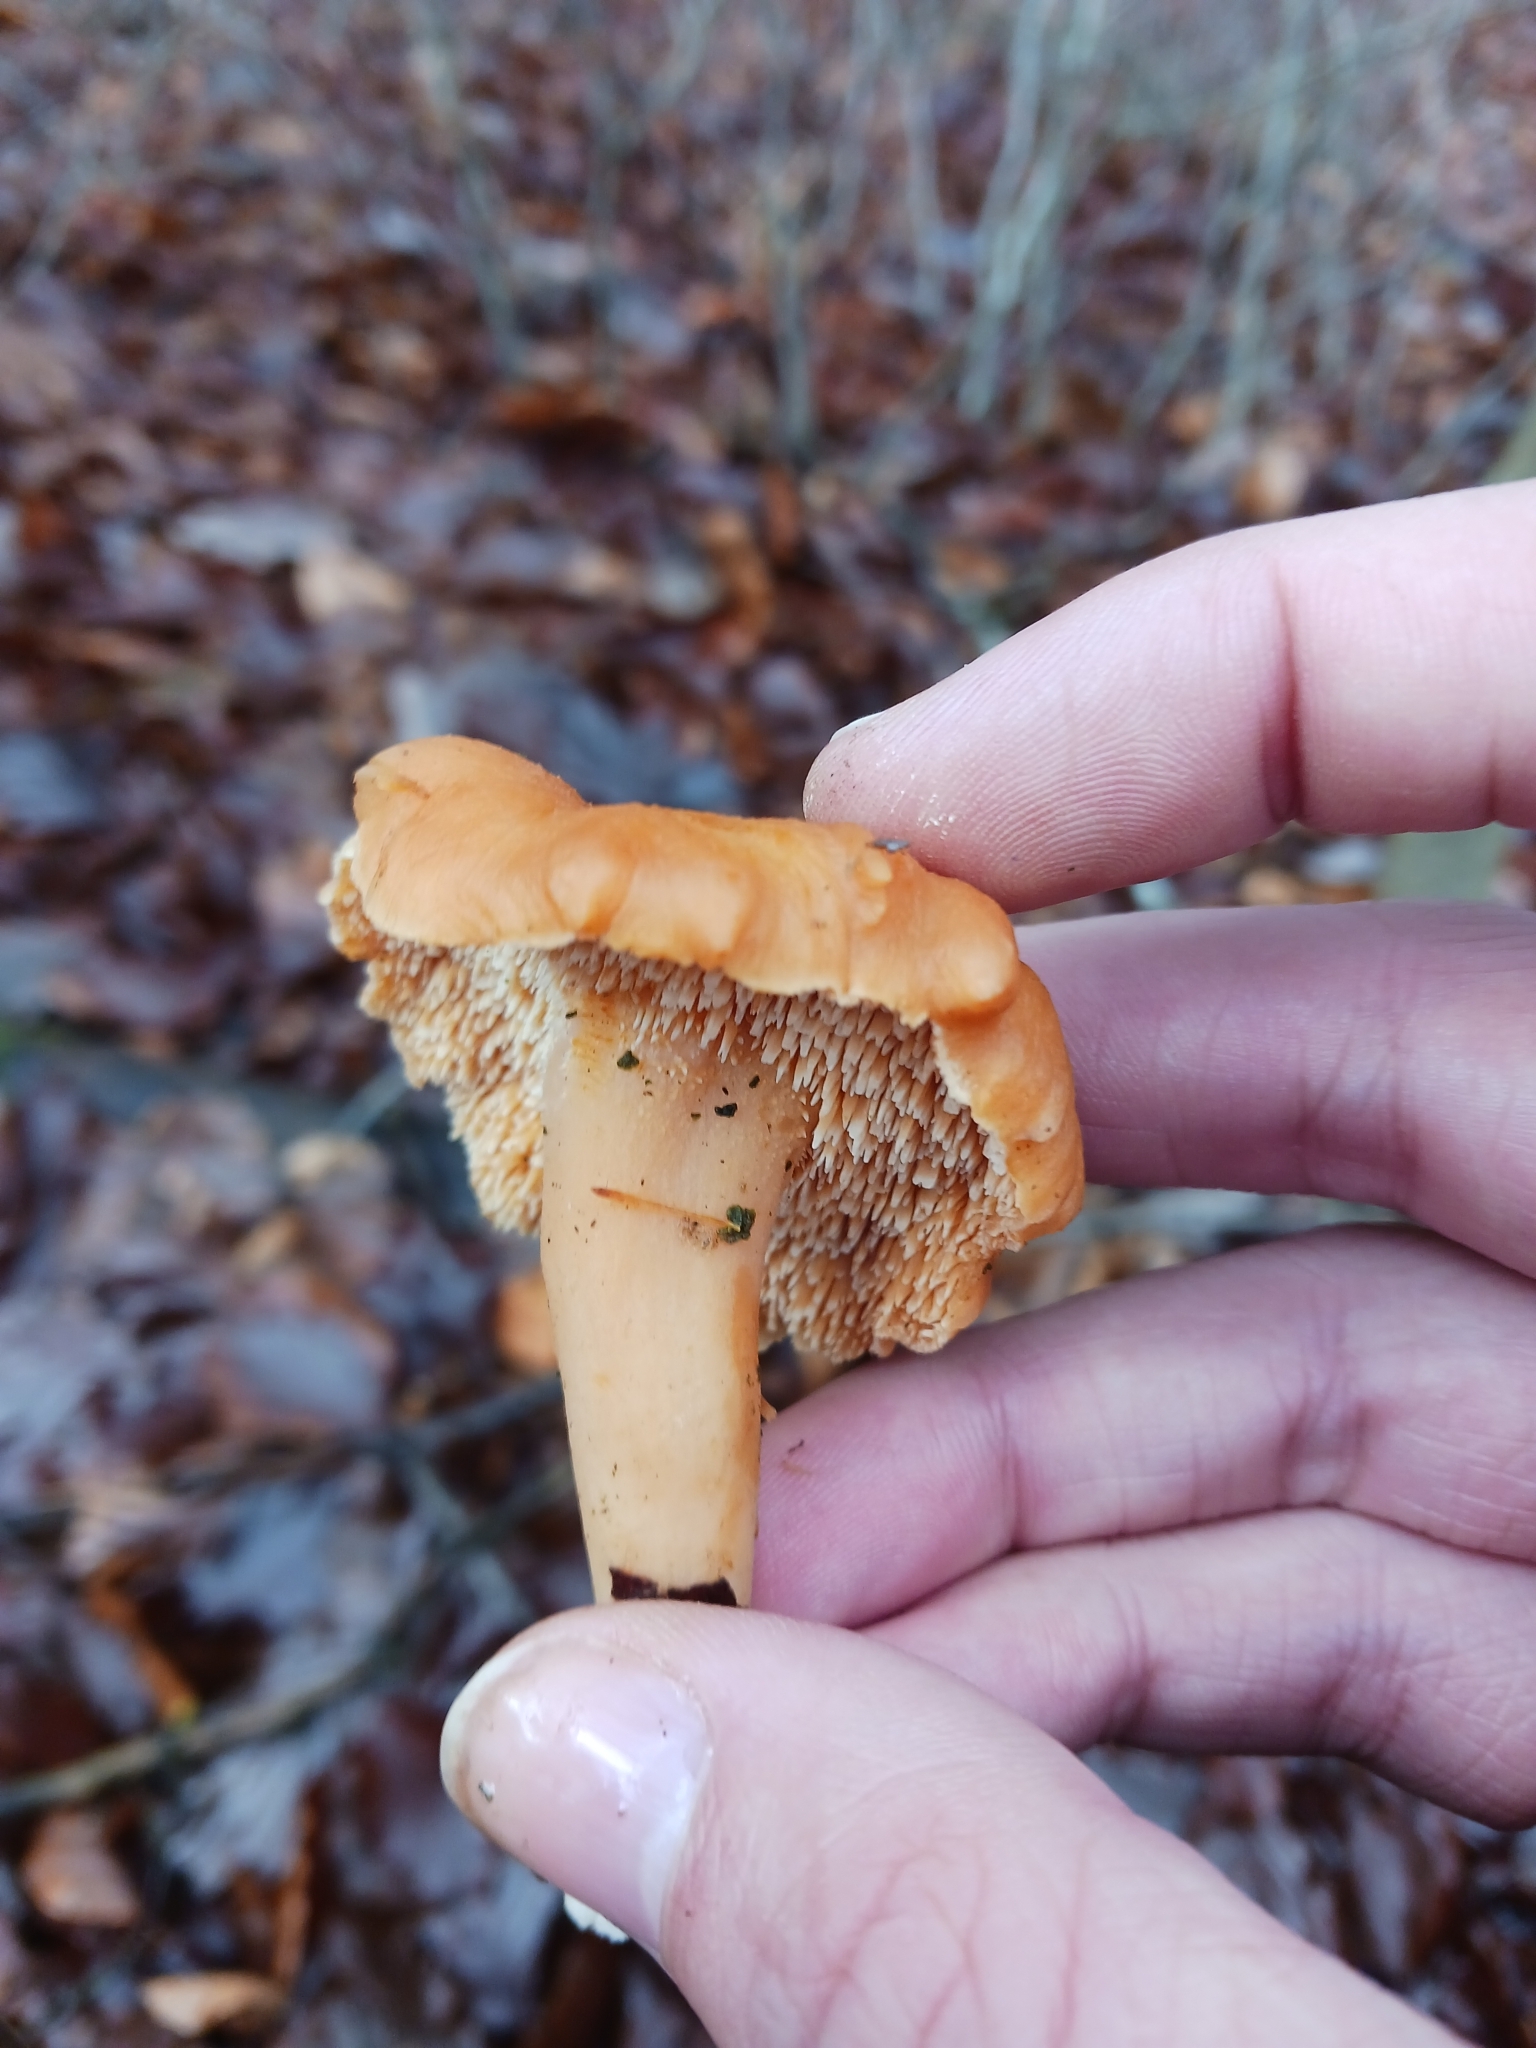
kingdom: Fungi
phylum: Basidiomycota
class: Agaricomycetes
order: Cantharellales
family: Hydnaceae
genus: Hydnum
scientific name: Hydnum
